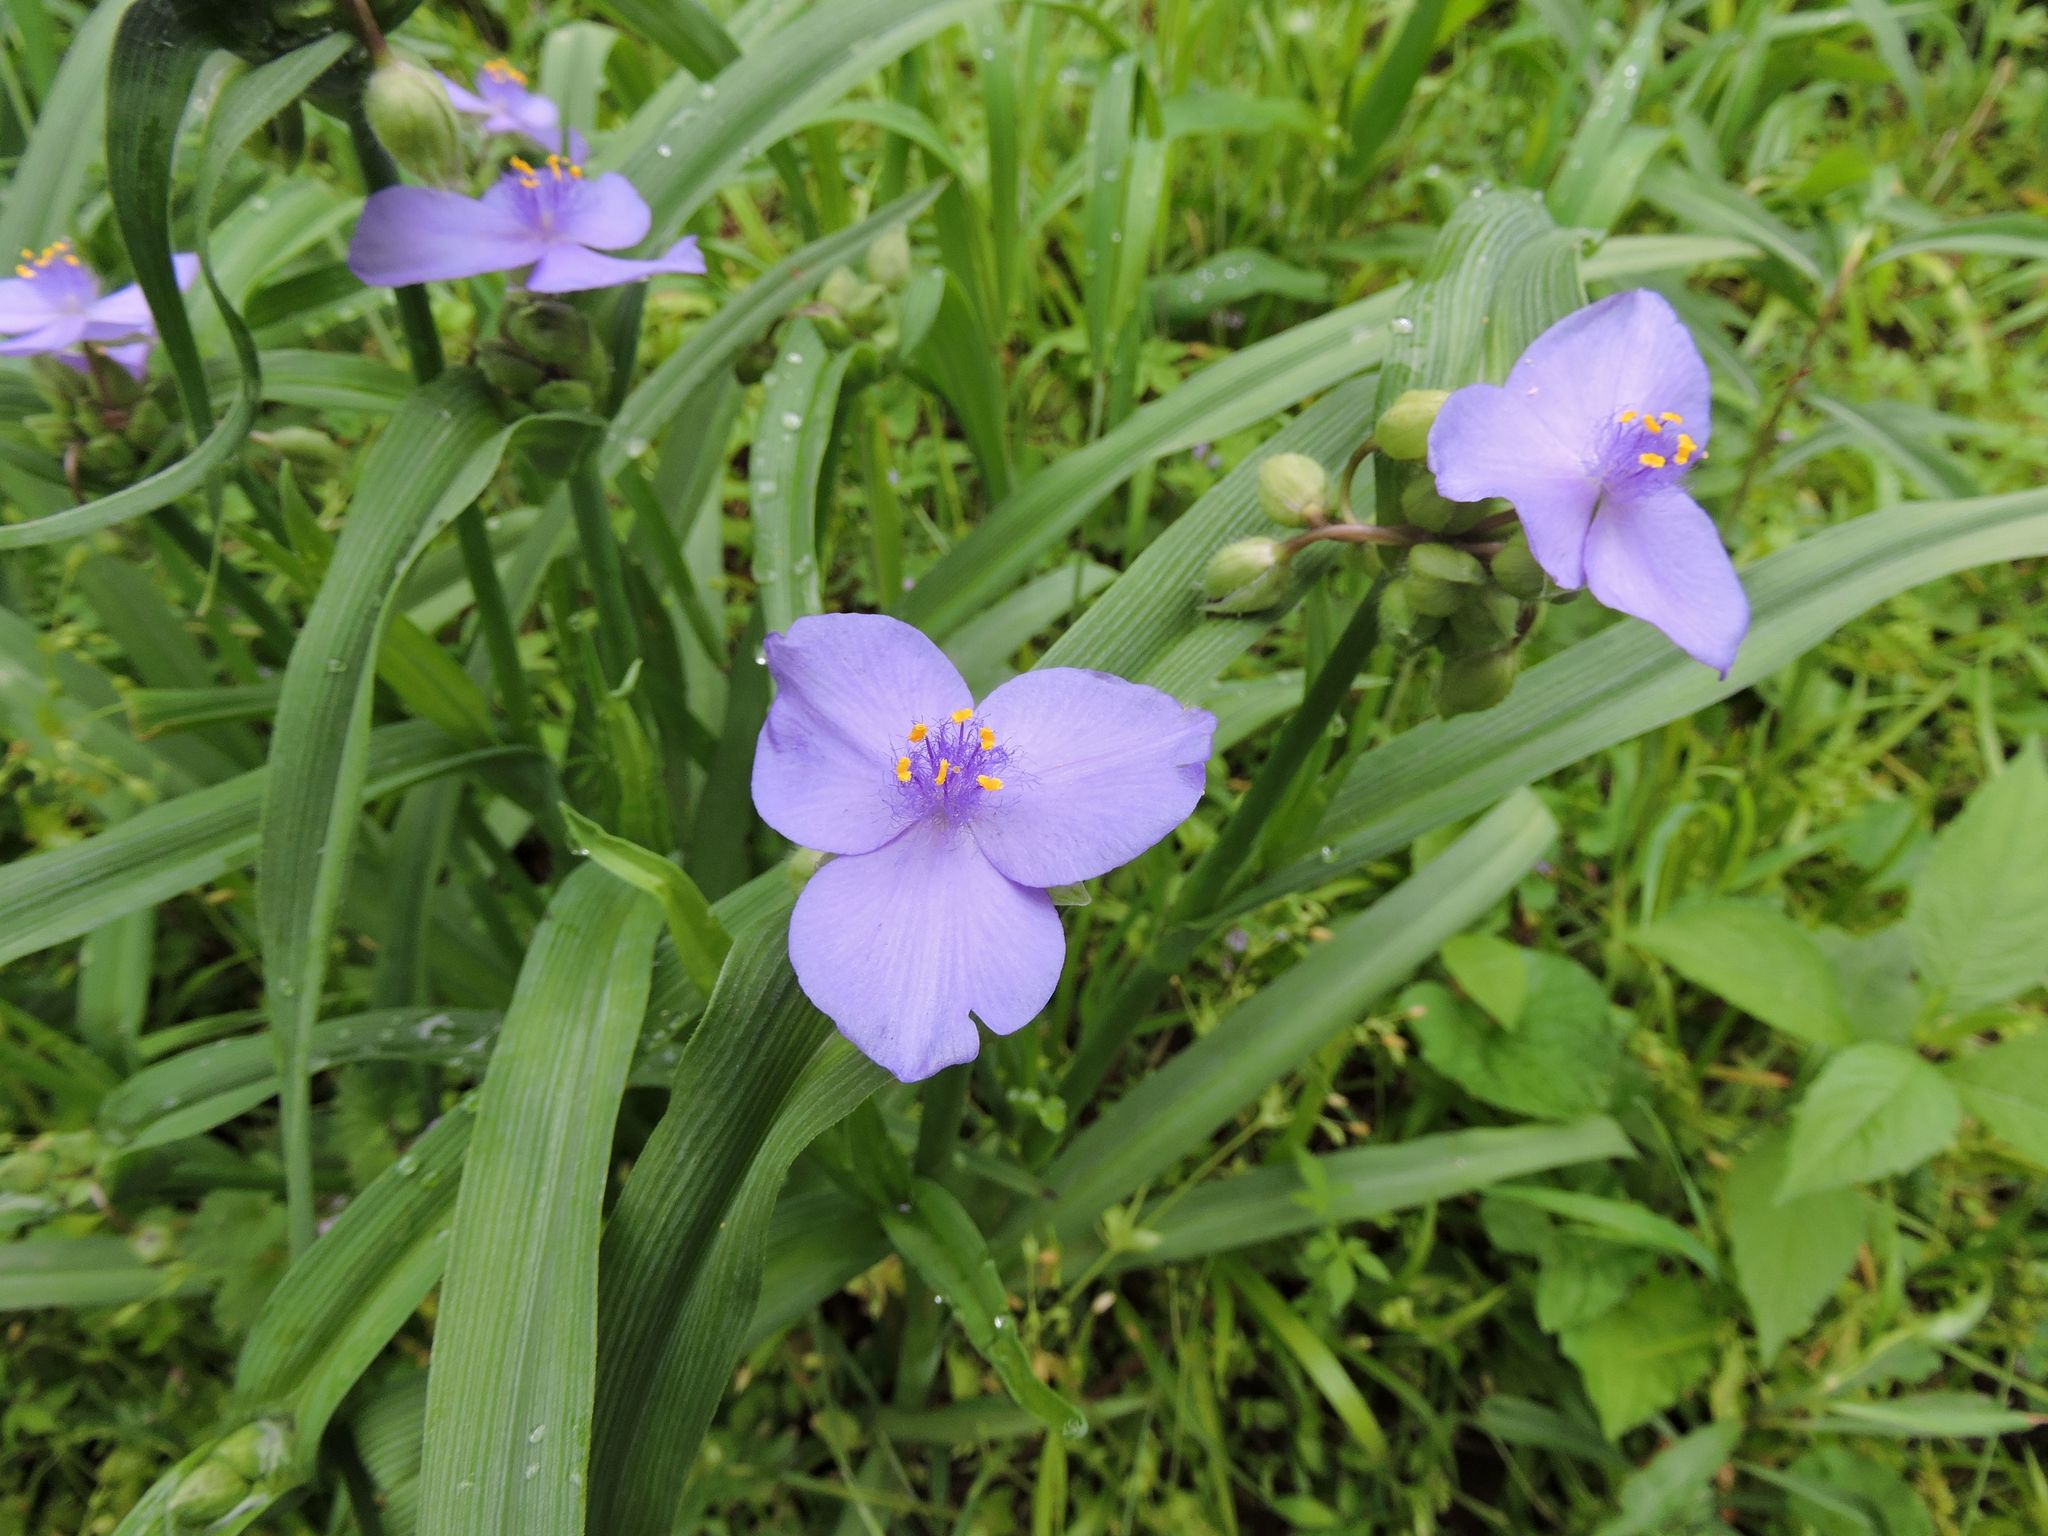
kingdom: Plantae
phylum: Tracheophyta
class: Liliopsida
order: Commelinales
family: Commelinaceae
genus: Tradescantia
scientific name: Tradescantia virginiana
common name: Spiderwort
